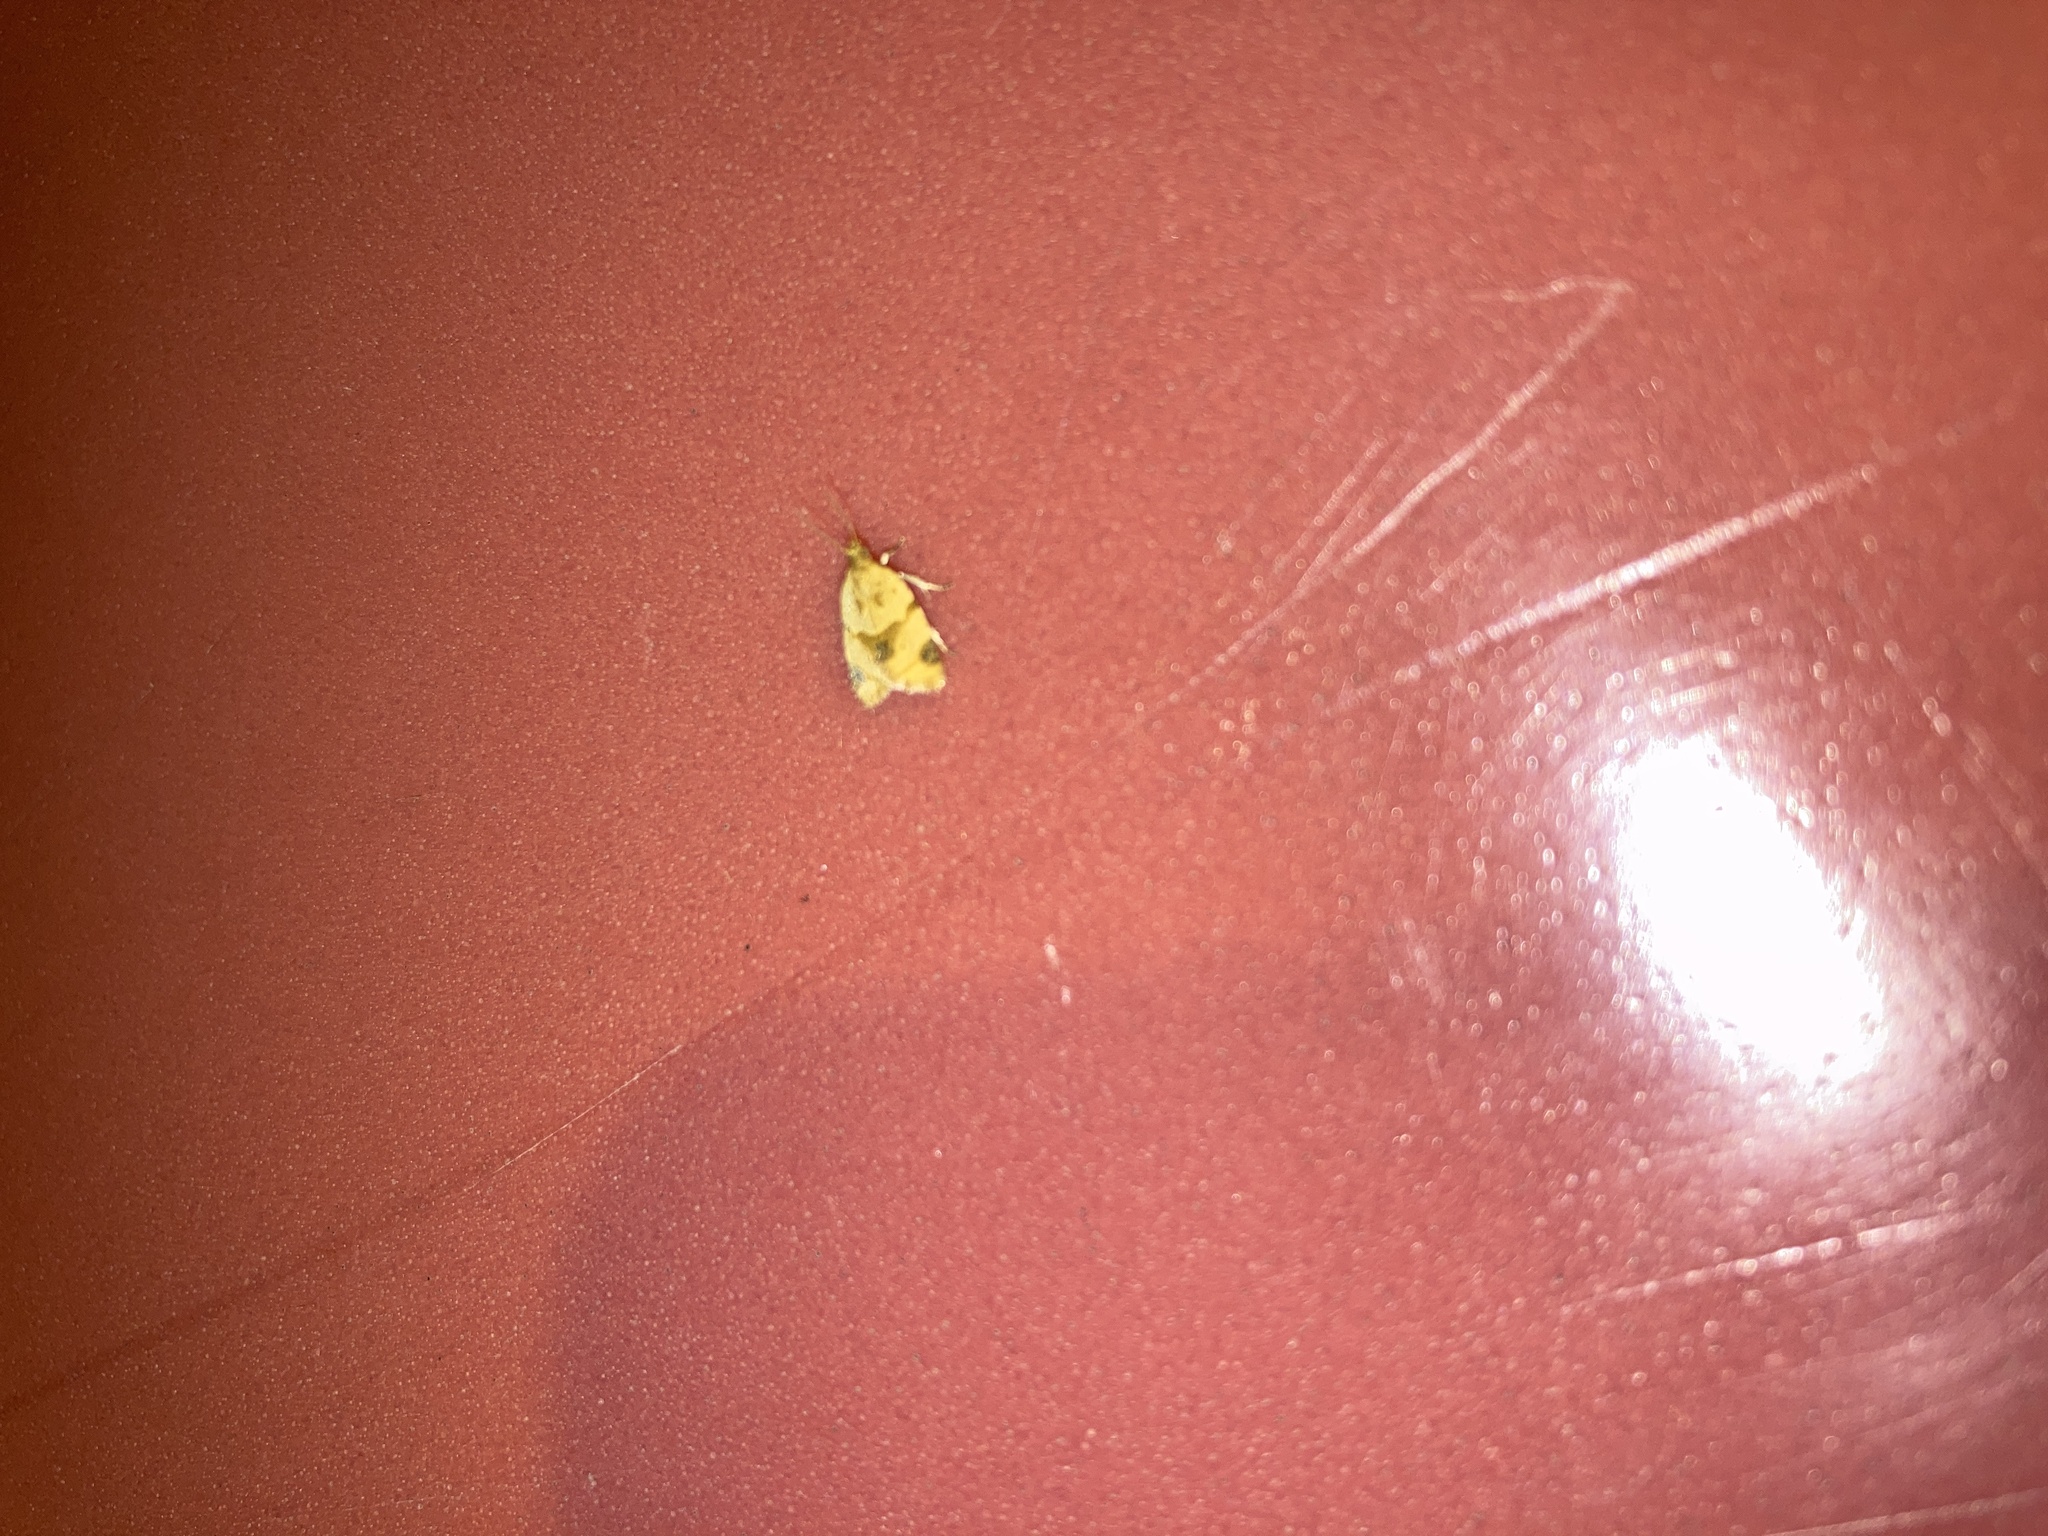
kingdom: Animalia
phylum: Arthropoda
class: Insecta
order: Lepidoptera
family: Tortricidae
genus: Clepsis
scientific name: Clepsis peritana
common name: Garden tortrix
